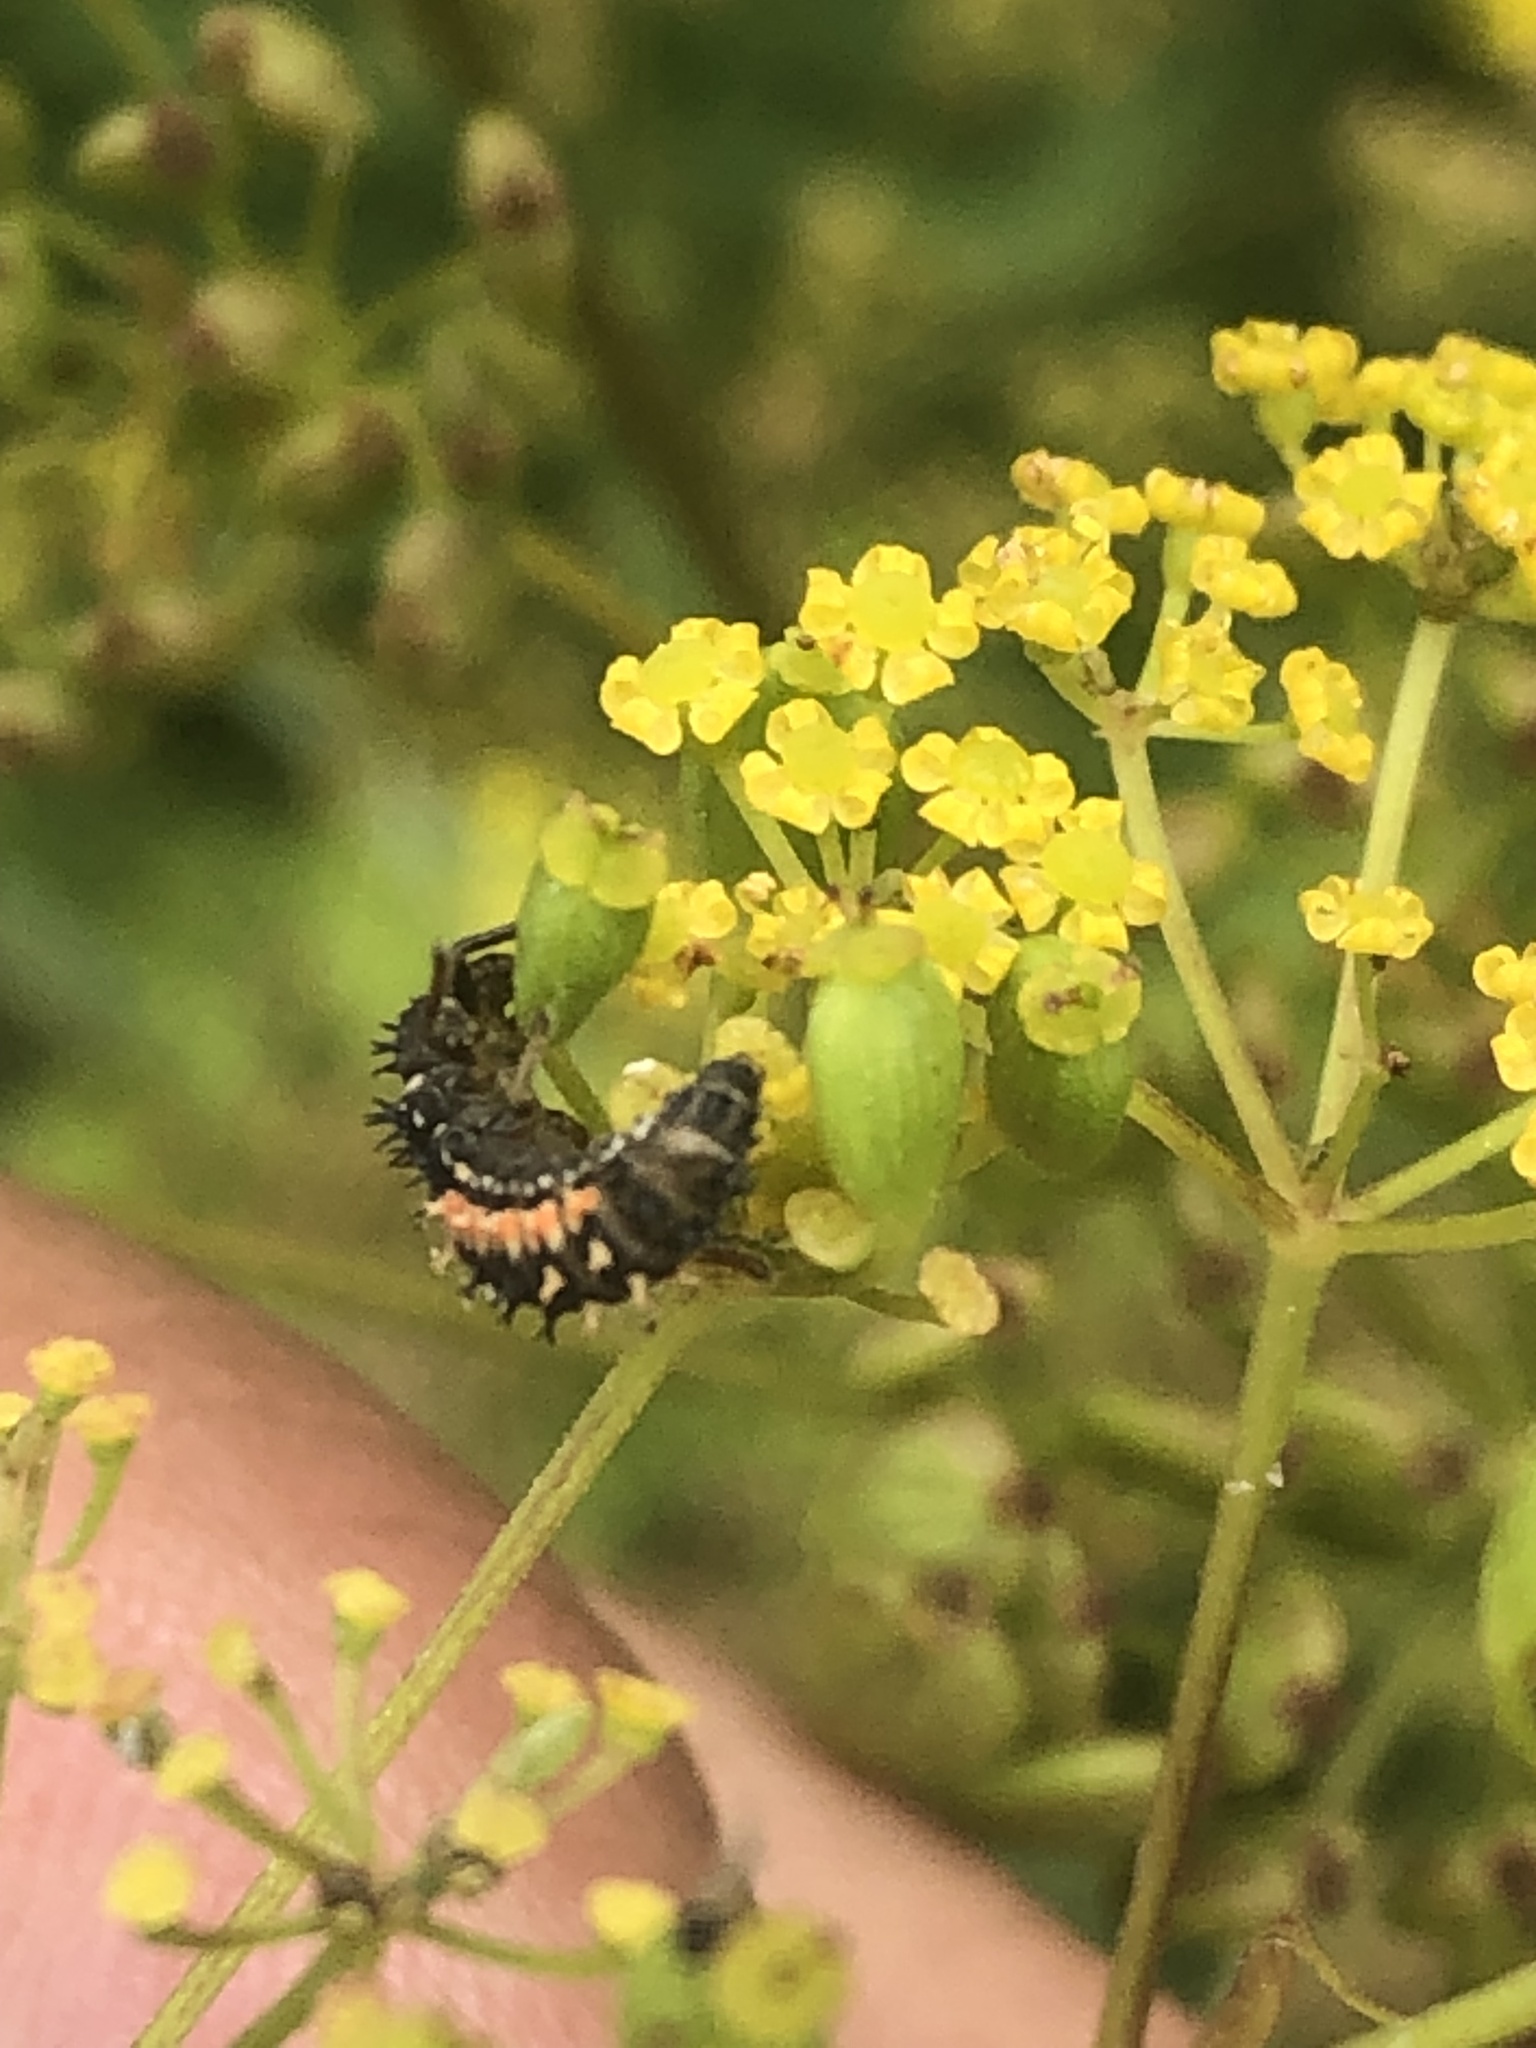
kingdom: Animalia
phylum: Arthropoda
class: Insecta
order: Coleoptera
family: Coccinellidae
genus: Harmonia
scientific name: Harmonia axyridis
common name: Harlequin ladybird
